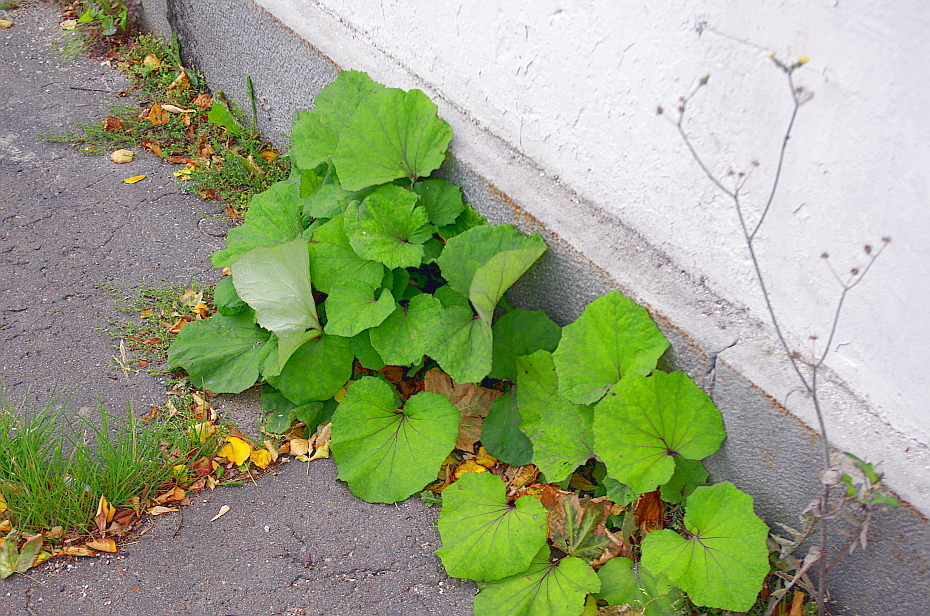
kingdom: Plantae
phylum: Tracheophyta
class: Magnoliopsida
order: Asterales
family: Asteraceae
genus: Tussilago
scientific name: Tussilago farfara
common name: Coltsfoot
